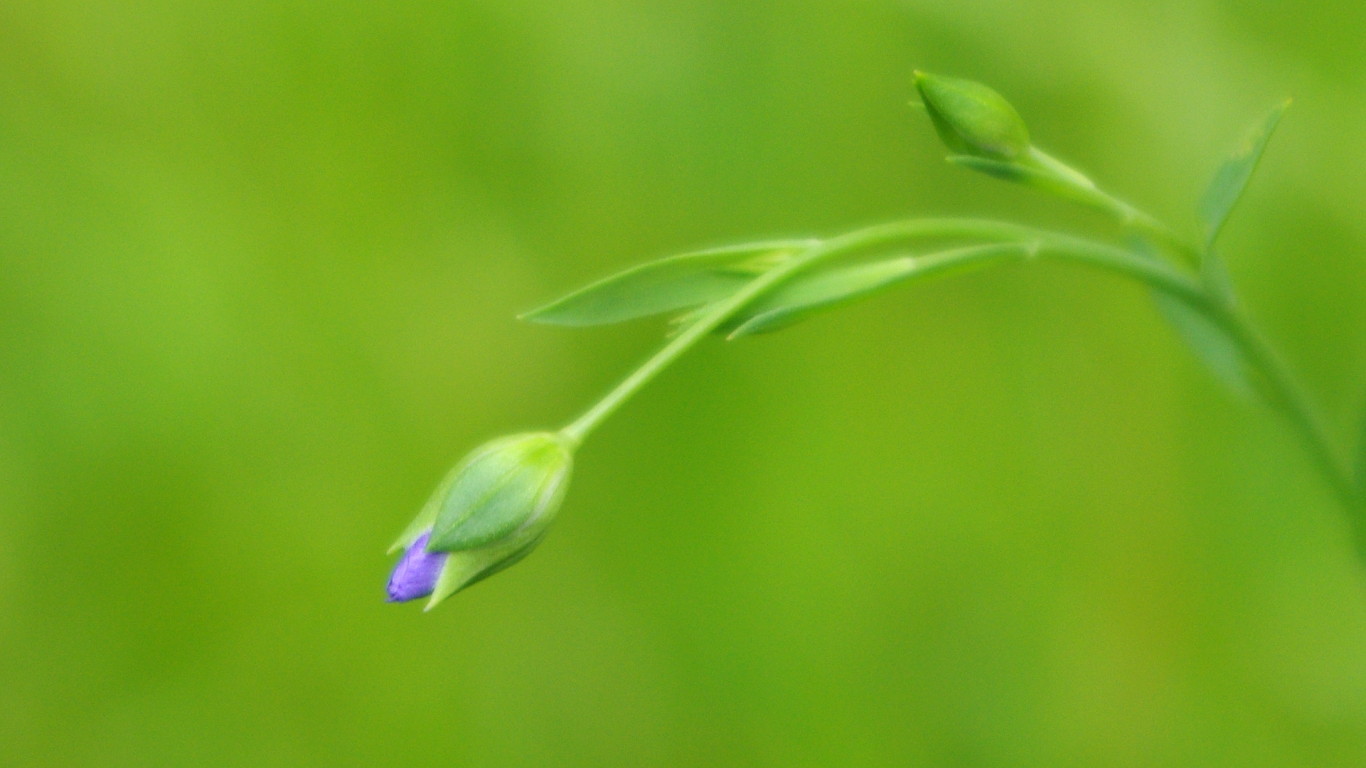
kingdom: Plantae
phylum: Tracheophyta
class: Magnoliopsida
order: Malpighiales
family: Linaceae
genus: Linum
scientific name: Linum usitatissimum
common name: Flax
